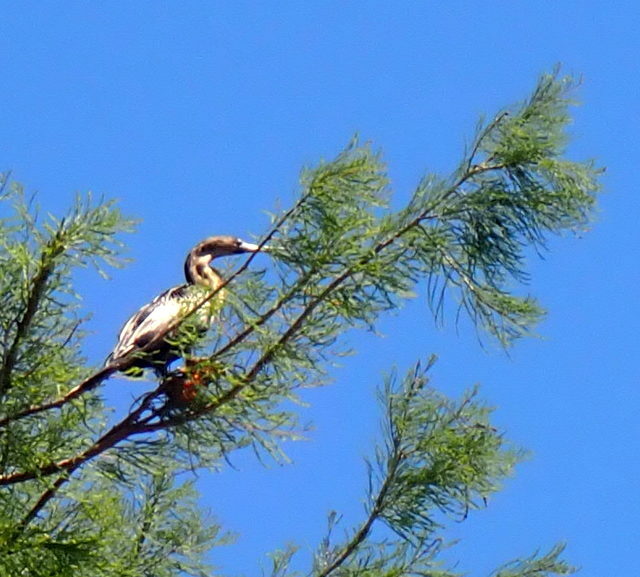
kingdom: Animalia
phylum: Chordata
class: Aves
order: Suliformes
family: Anhingidae
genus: Anhinga
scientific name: Anhinga anhinga
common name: Anhinga
